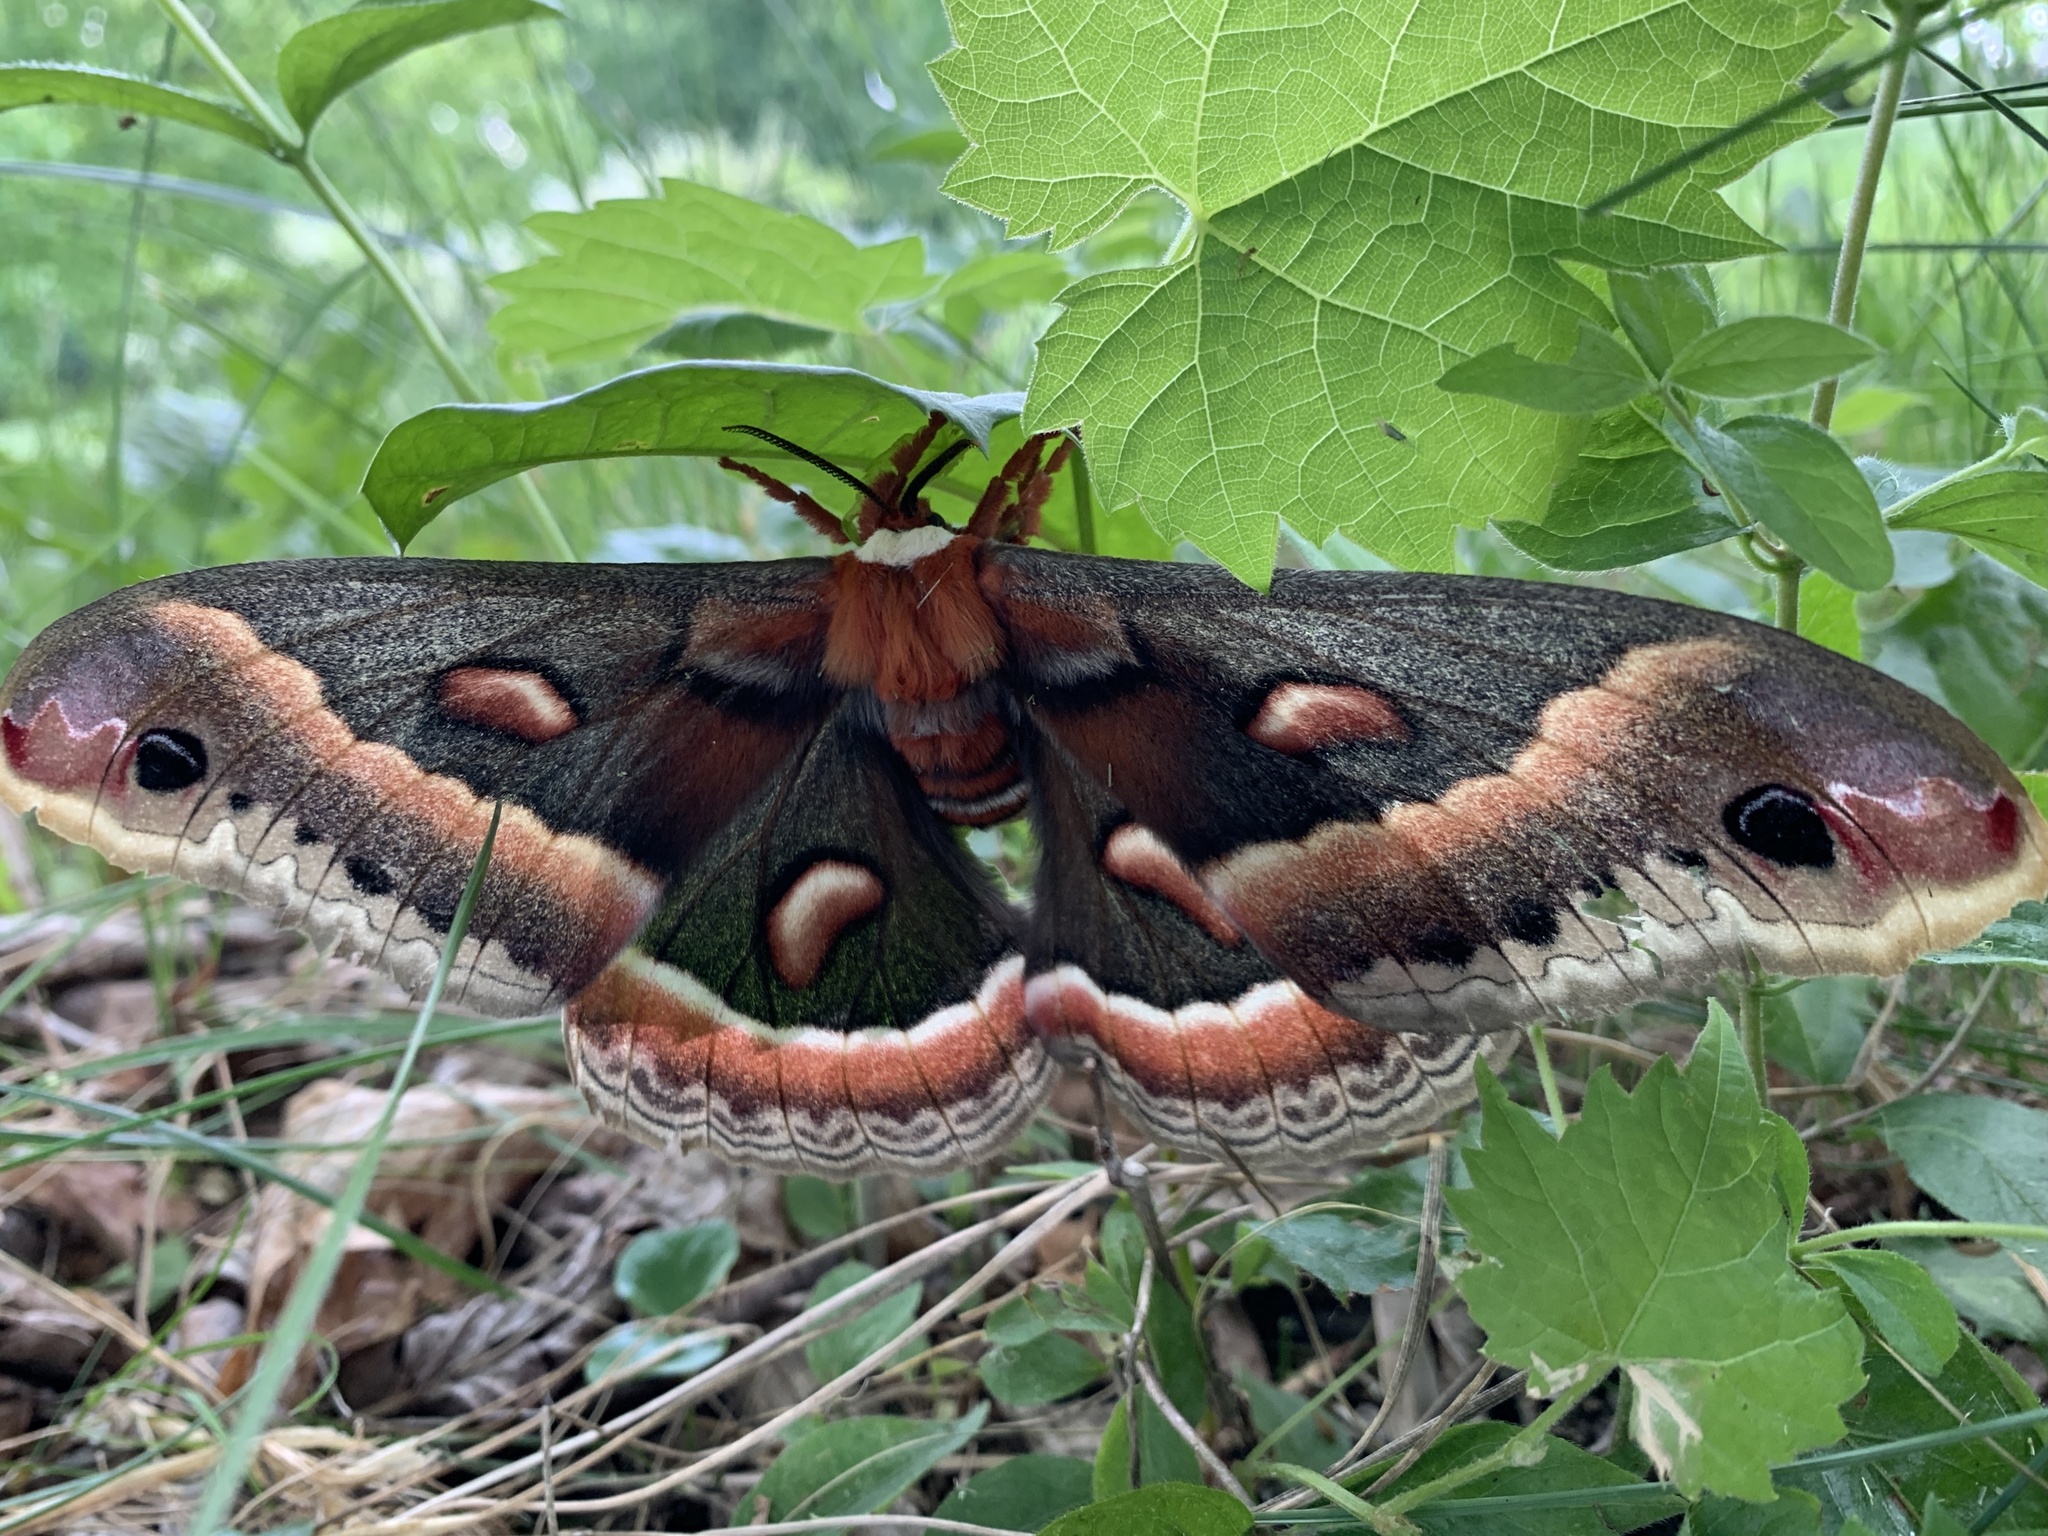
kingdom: Animalia
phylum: Arthropoda
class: Insecta
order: Lepidoptera
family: Saturniidae
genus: Hyalophora
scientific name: Hyalophora cecropia
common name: Cecropia silkmoth
